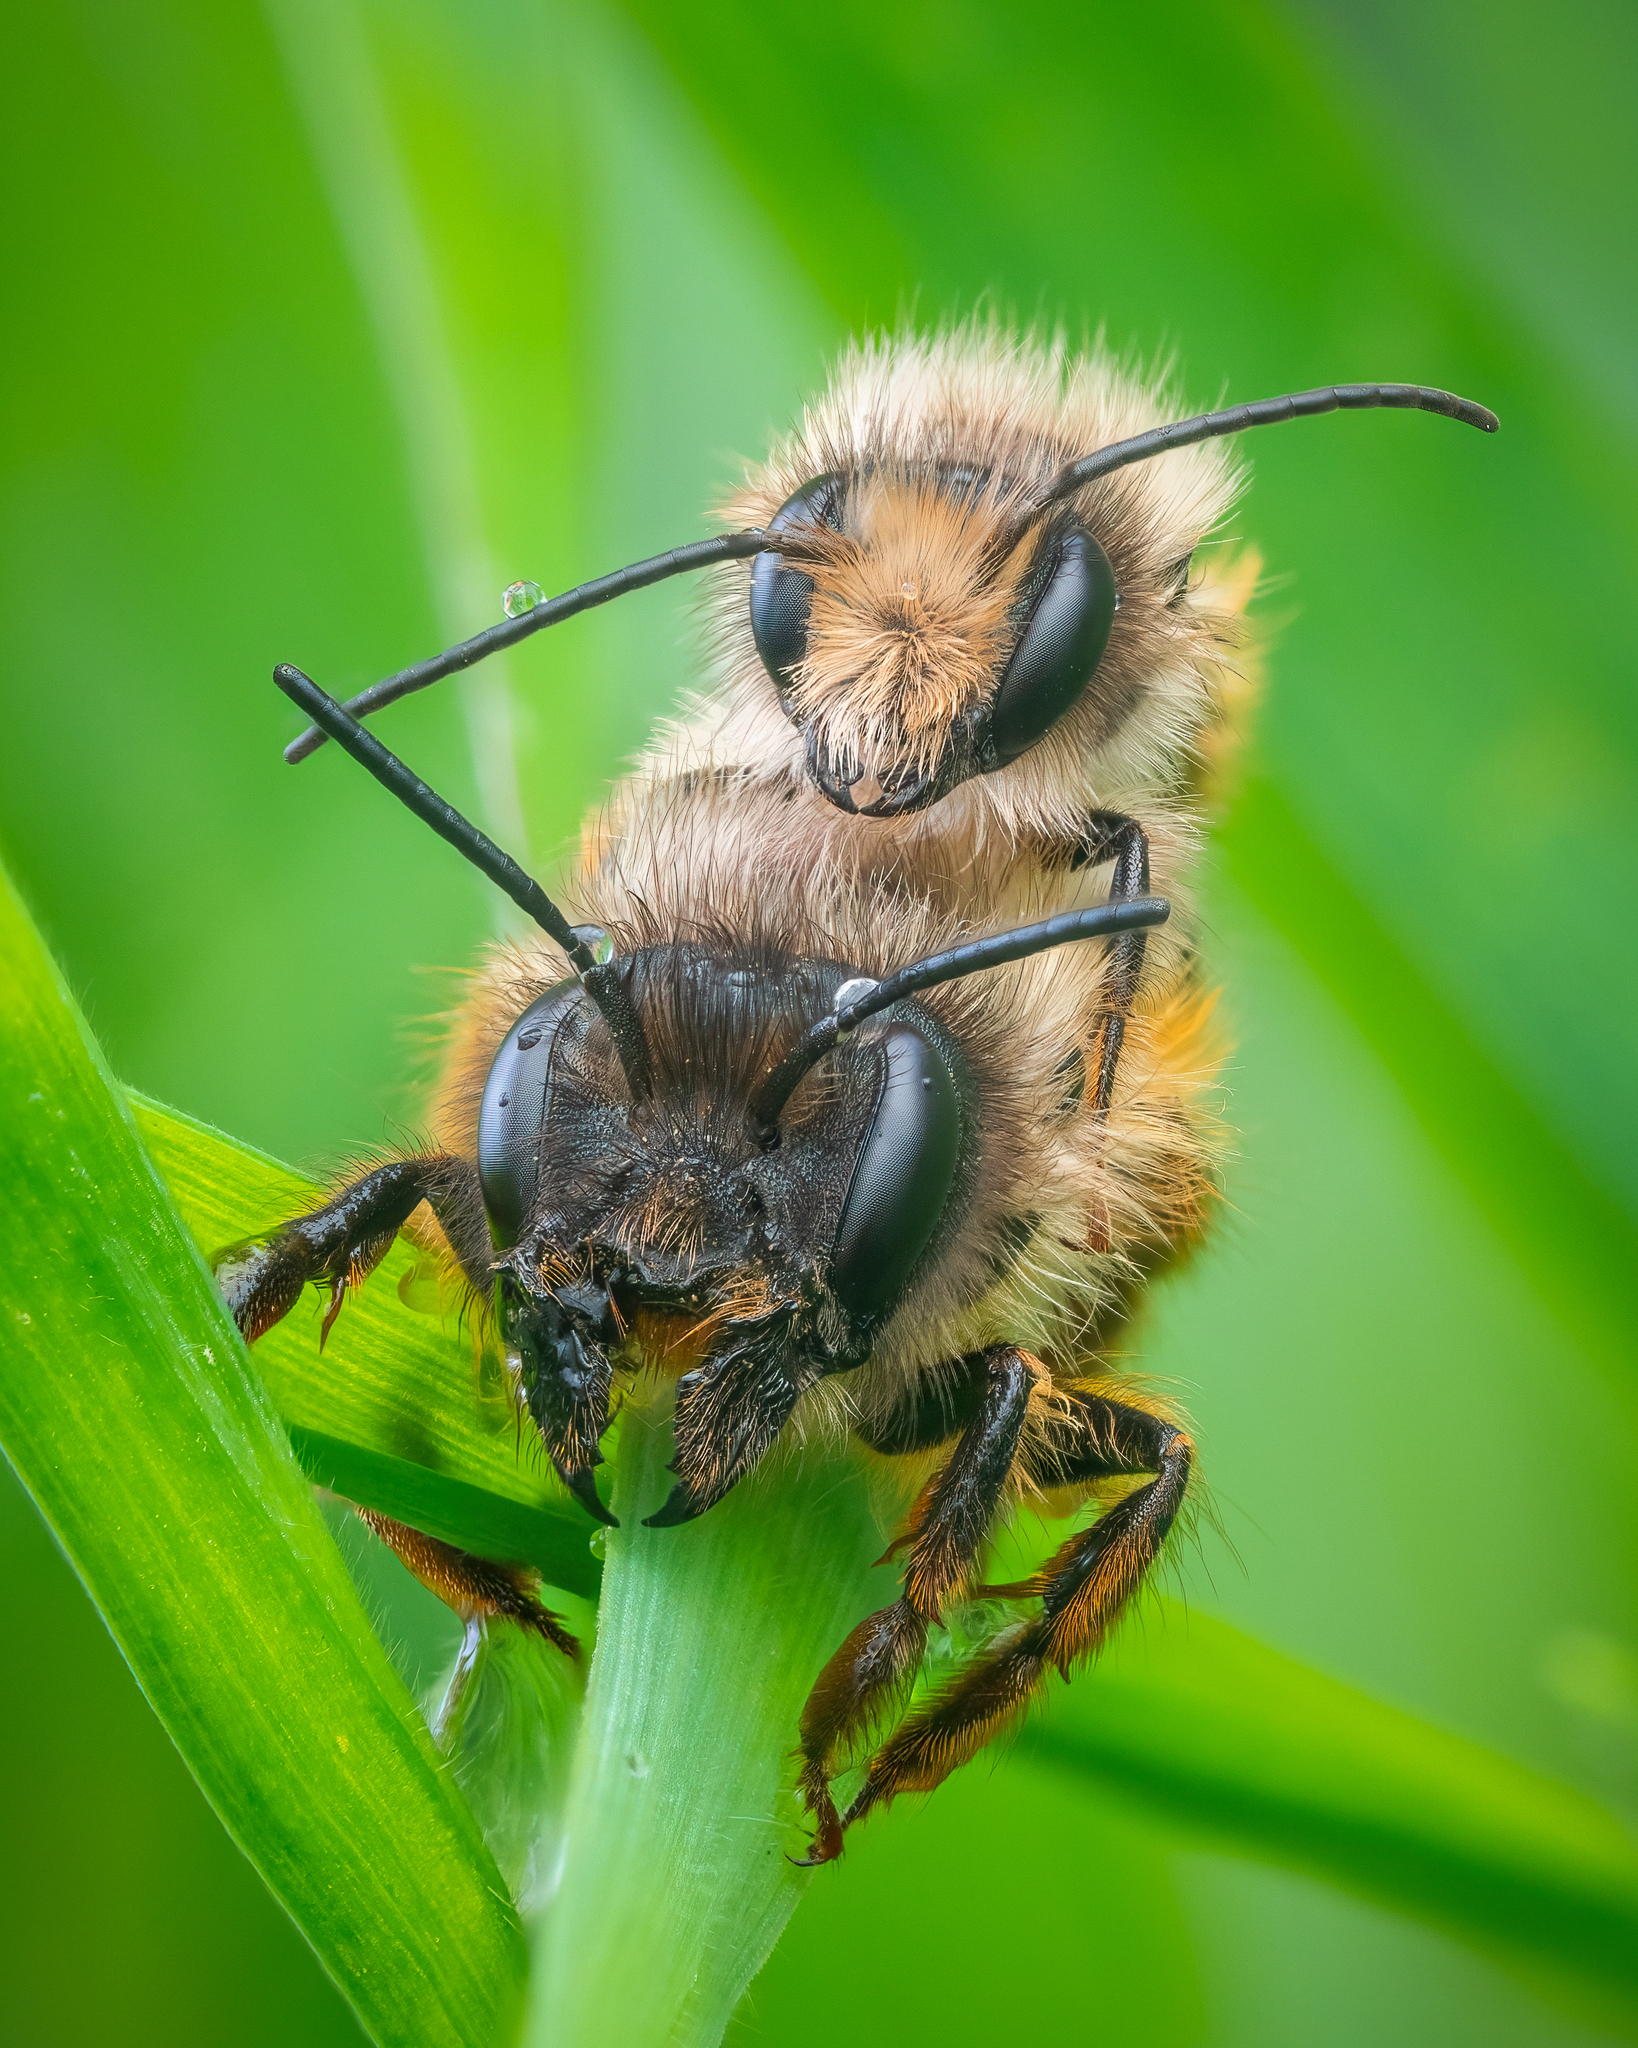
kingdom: Animalia
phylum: Arthropoda
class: Insecta
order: Hymenoptera
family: Megachilidae
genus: Osmia
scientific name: Osmia bicornis
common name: Red mason bee
